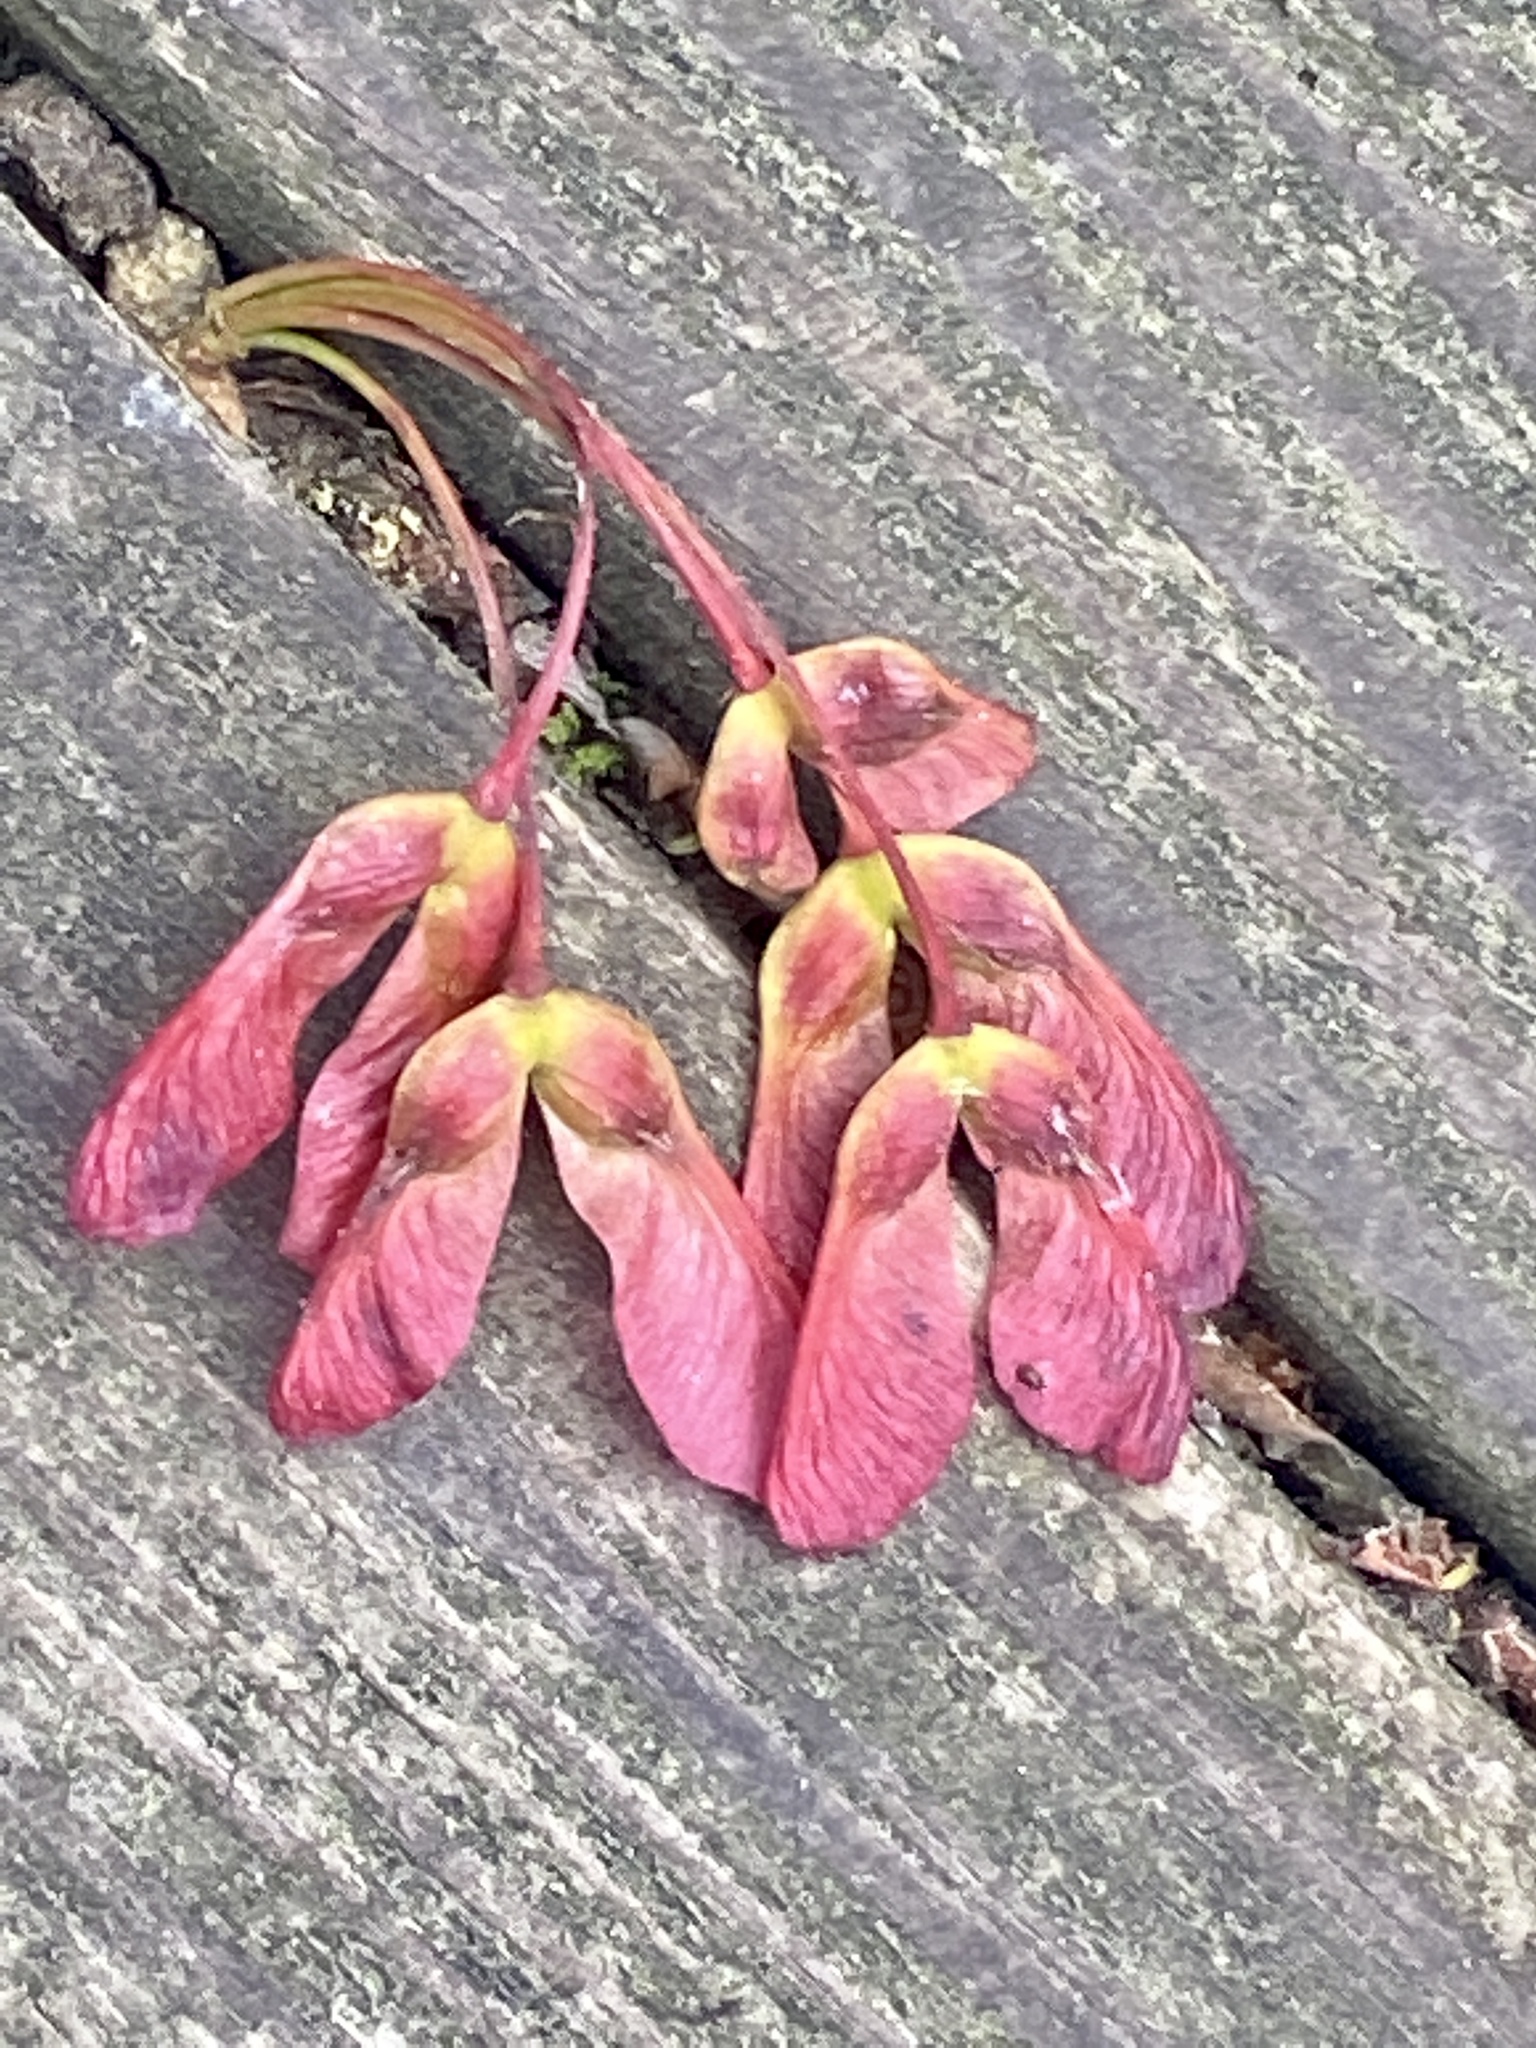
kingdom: Plantae
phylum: Tracheophyta
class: Magnoliopsida
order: Sapindales
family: Sapindaceae
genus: Acer
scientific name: Acer rubrum
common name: Red maple
